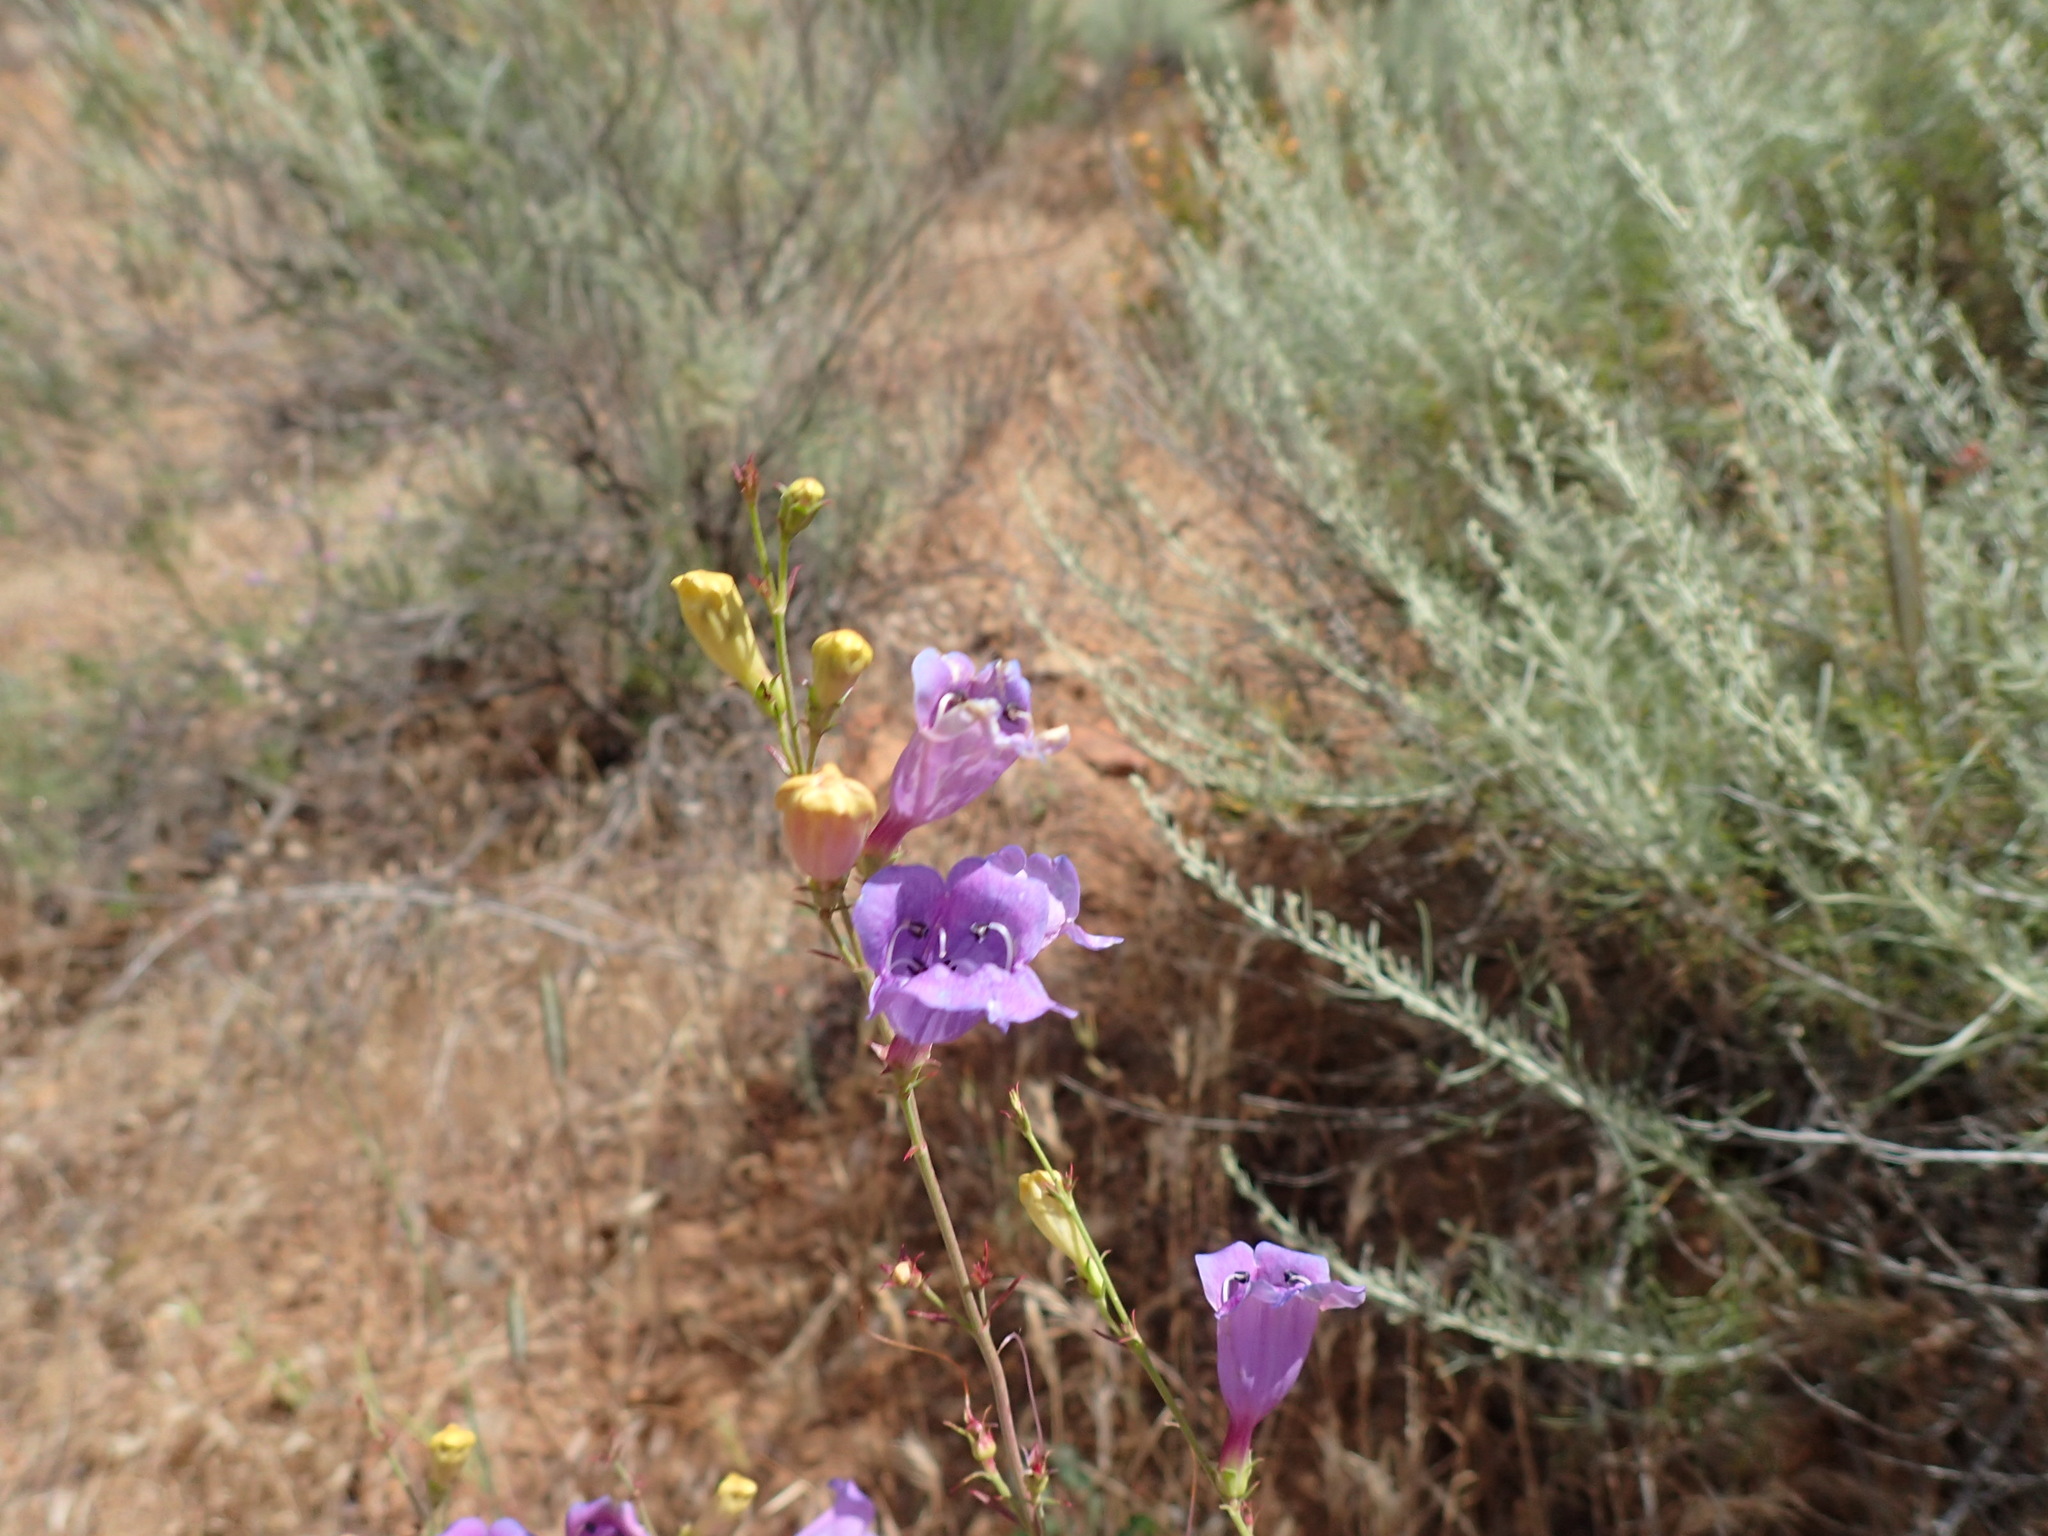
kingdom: Plantae
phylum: Tracheophyta
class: Magnoliopsida
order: Lamiales
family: Plantaginaceae
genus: Penstemon
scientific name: Penstemon heterophyllus
